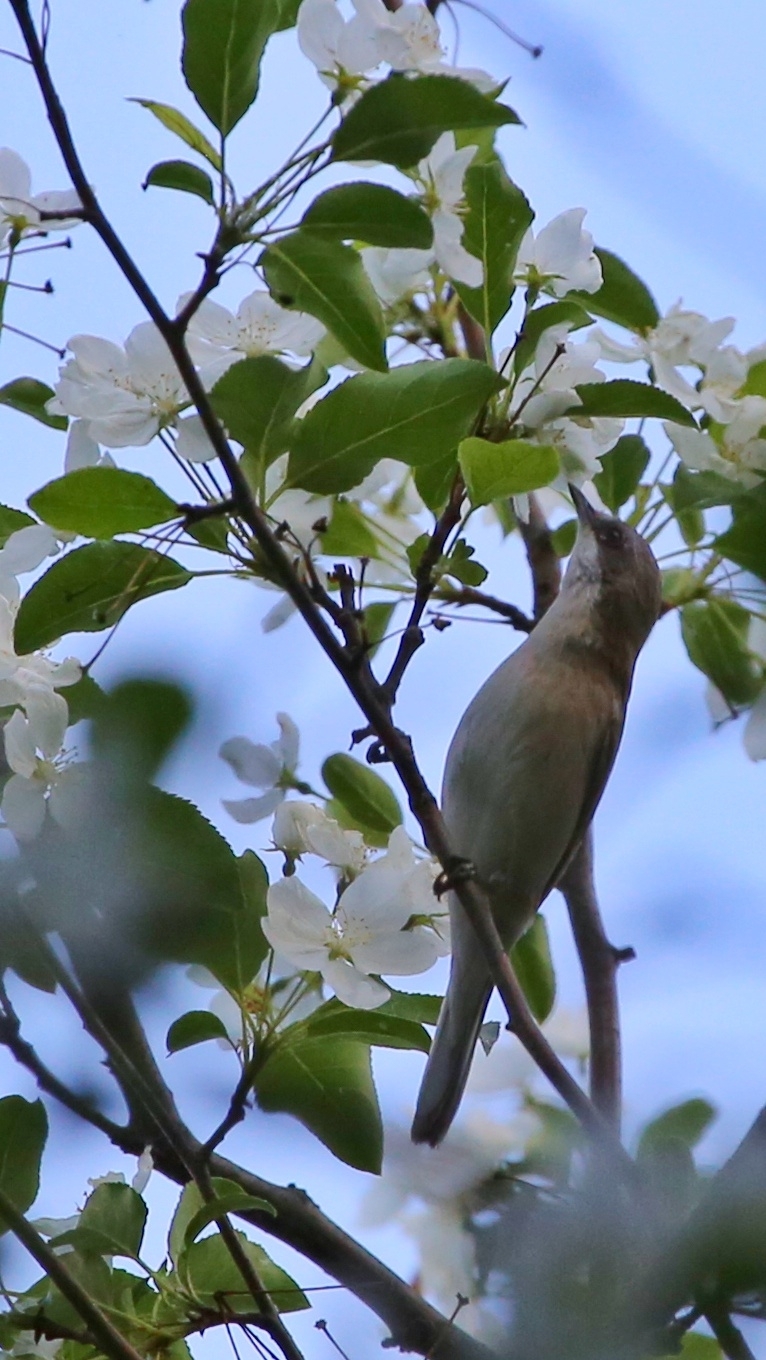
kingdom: Animalia
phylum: Chordata
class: Aves
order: Passeriformes
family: Sylviidae
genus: Sylvia
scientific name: Sylvia curruca
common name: Lesser whitethroat
